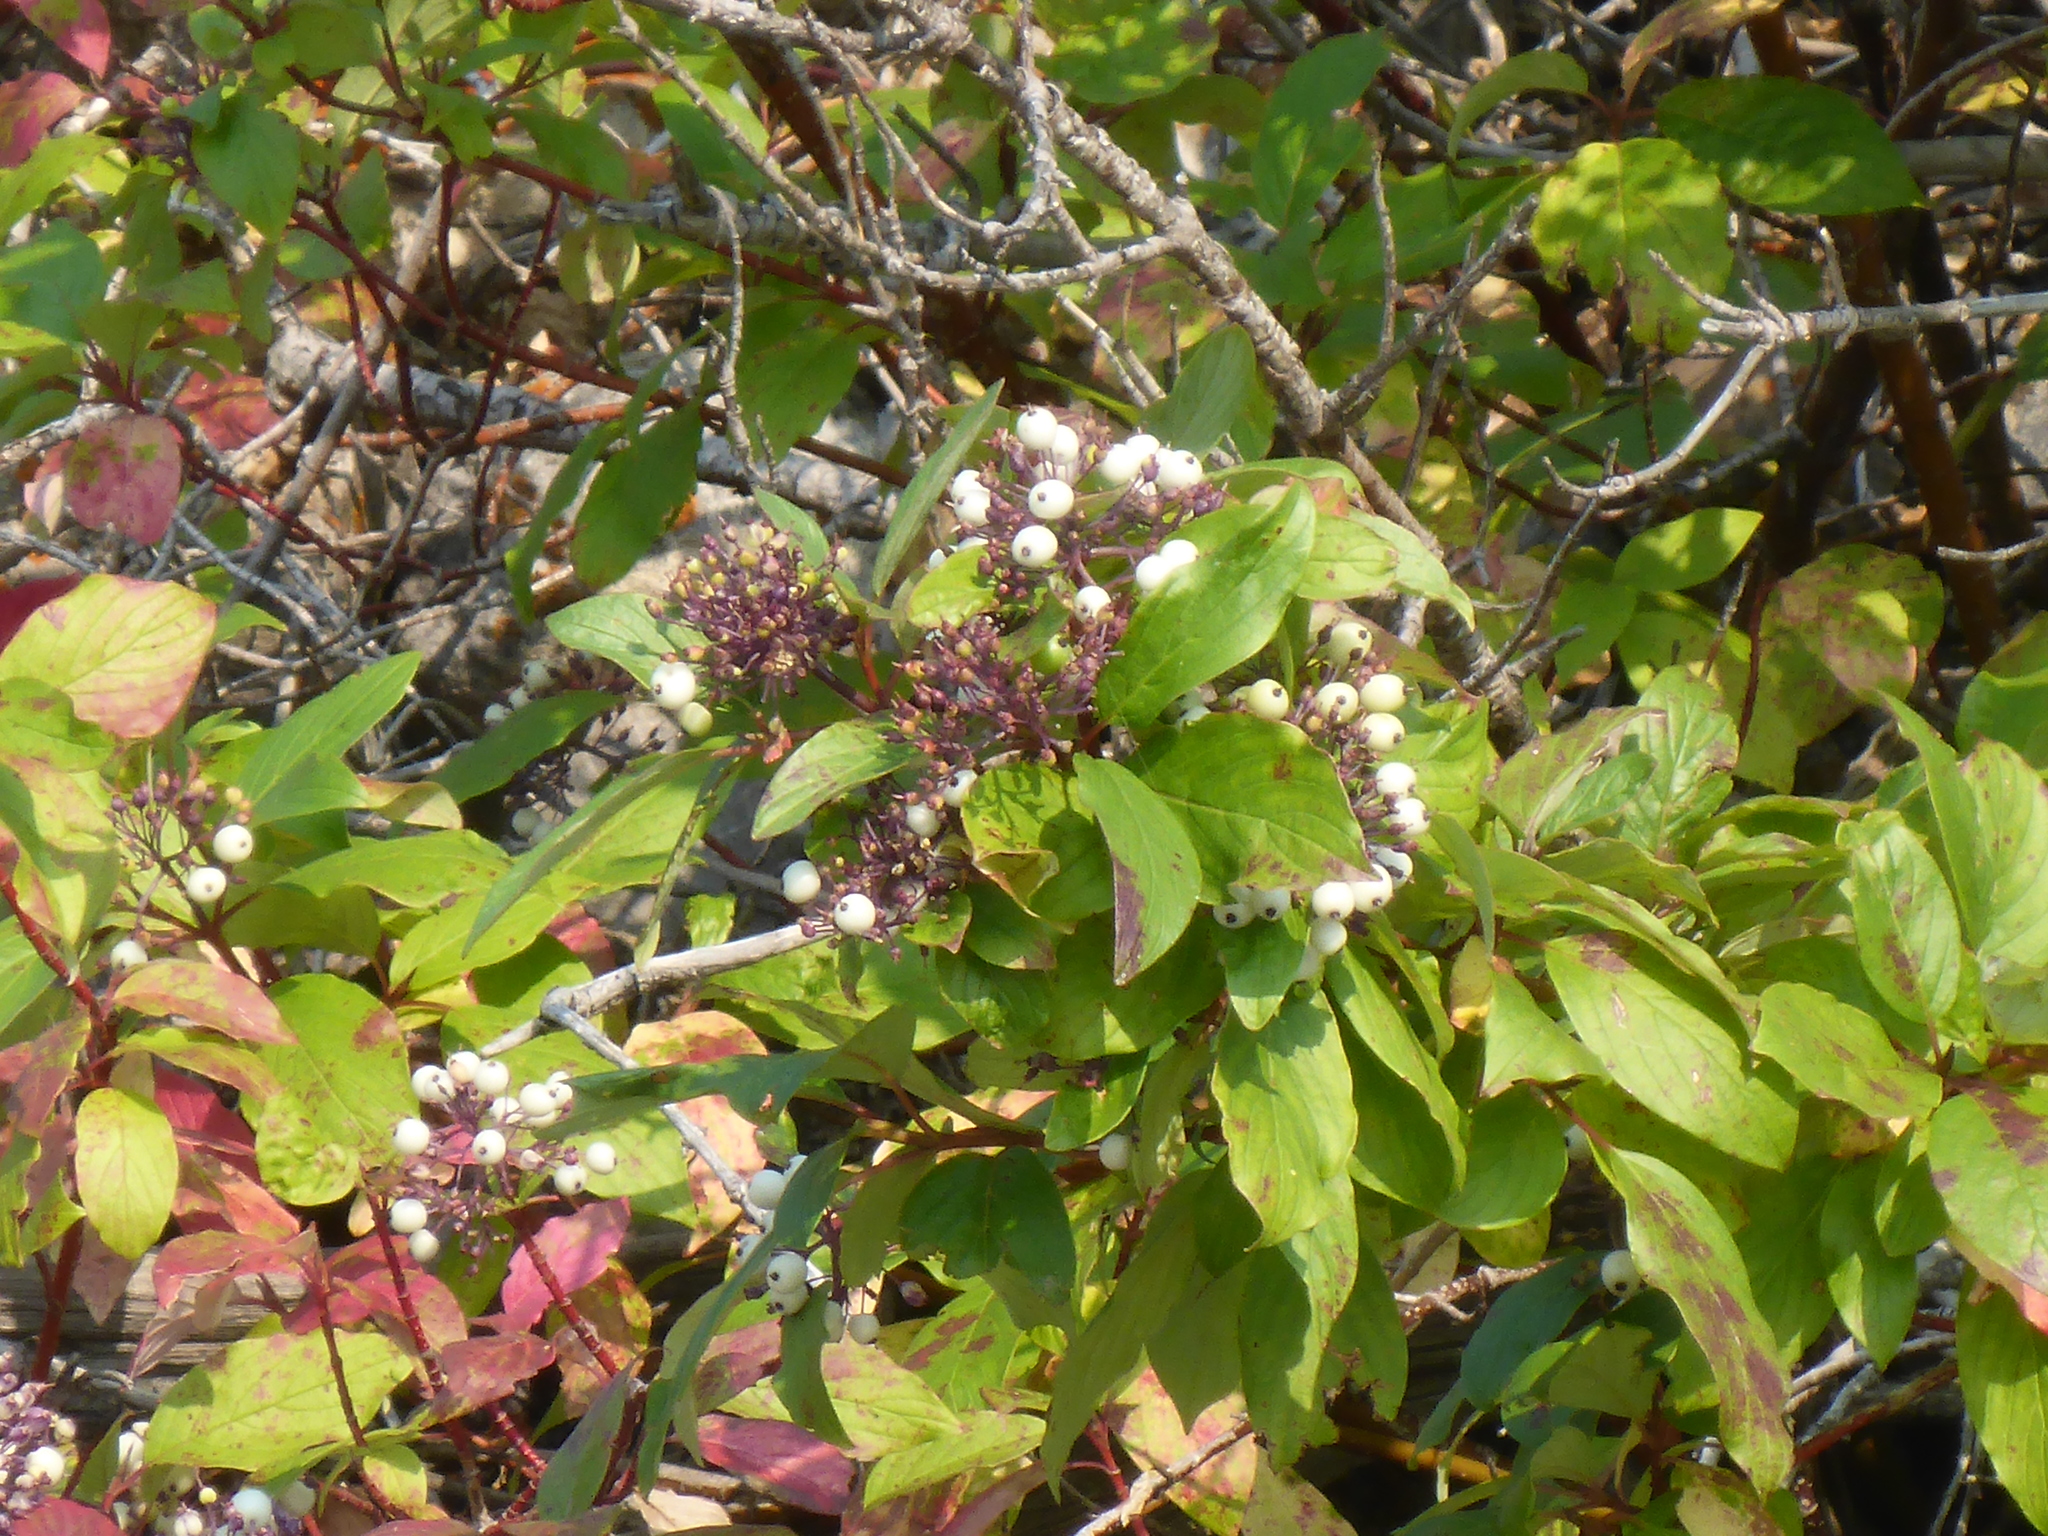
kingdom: Plantae
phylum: Tracheophyta
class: Magnoliopsida
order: Cornales
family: Cornaceae
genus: Cornus
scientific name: Cornus sericea
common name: Red-osier dogwood
